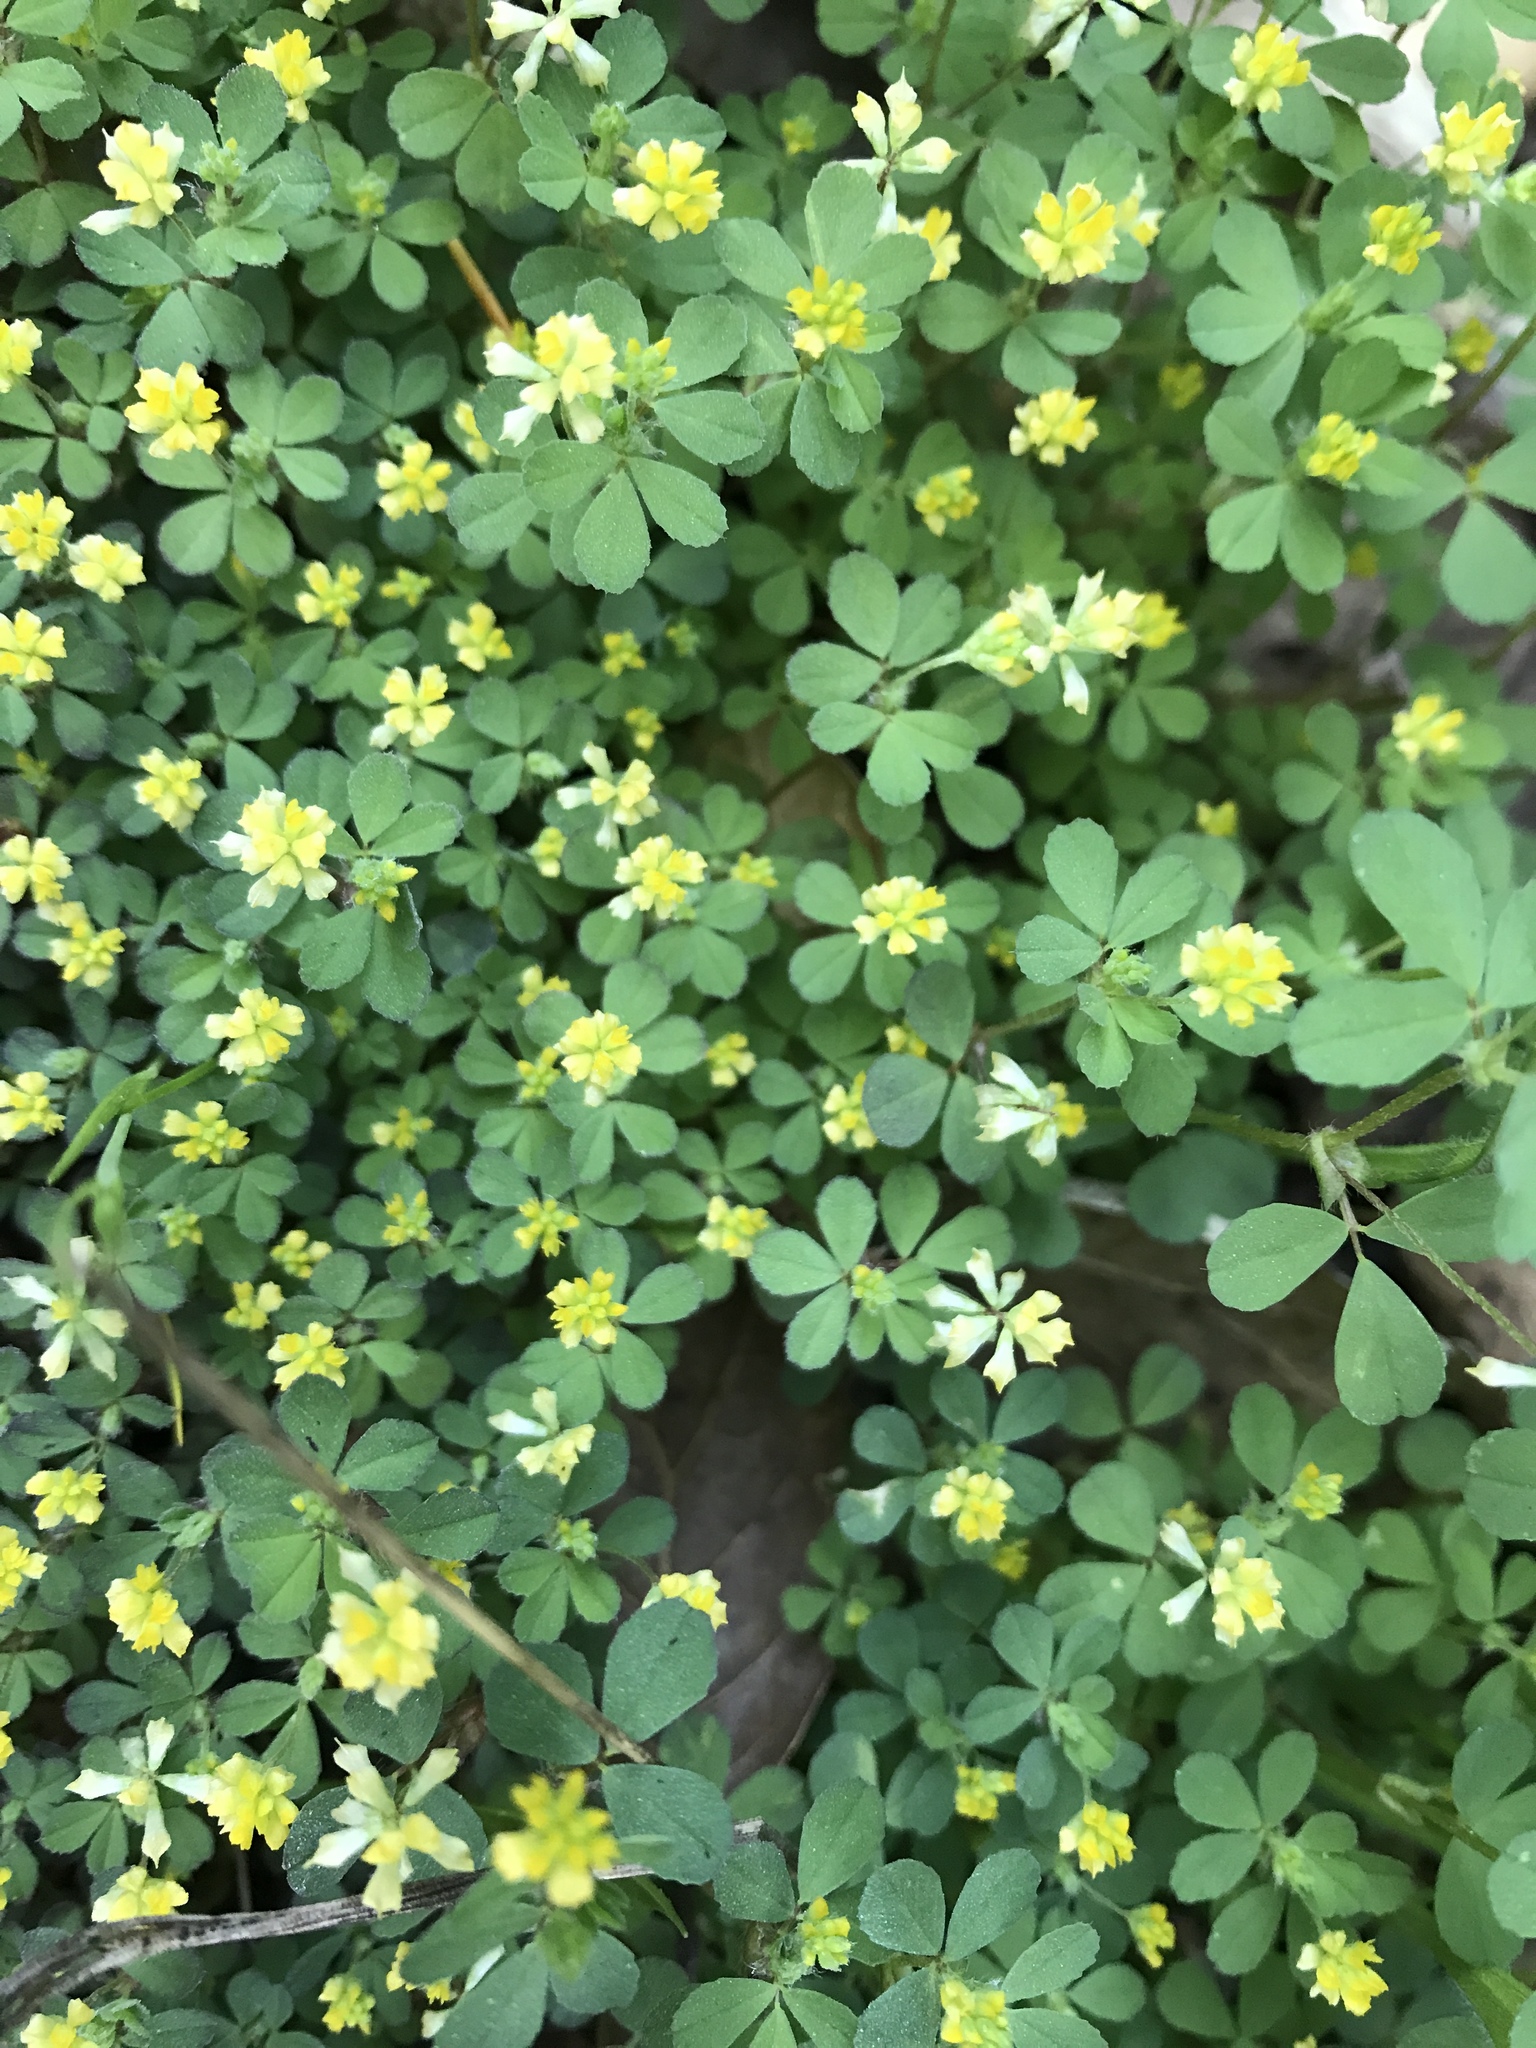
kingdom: Plantae
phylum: Tracheophyta
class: Magnoliopsida
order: Fabales
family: Fabaceae
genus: Trifolium
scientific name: Trifolium dubium
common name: Suckling clover
